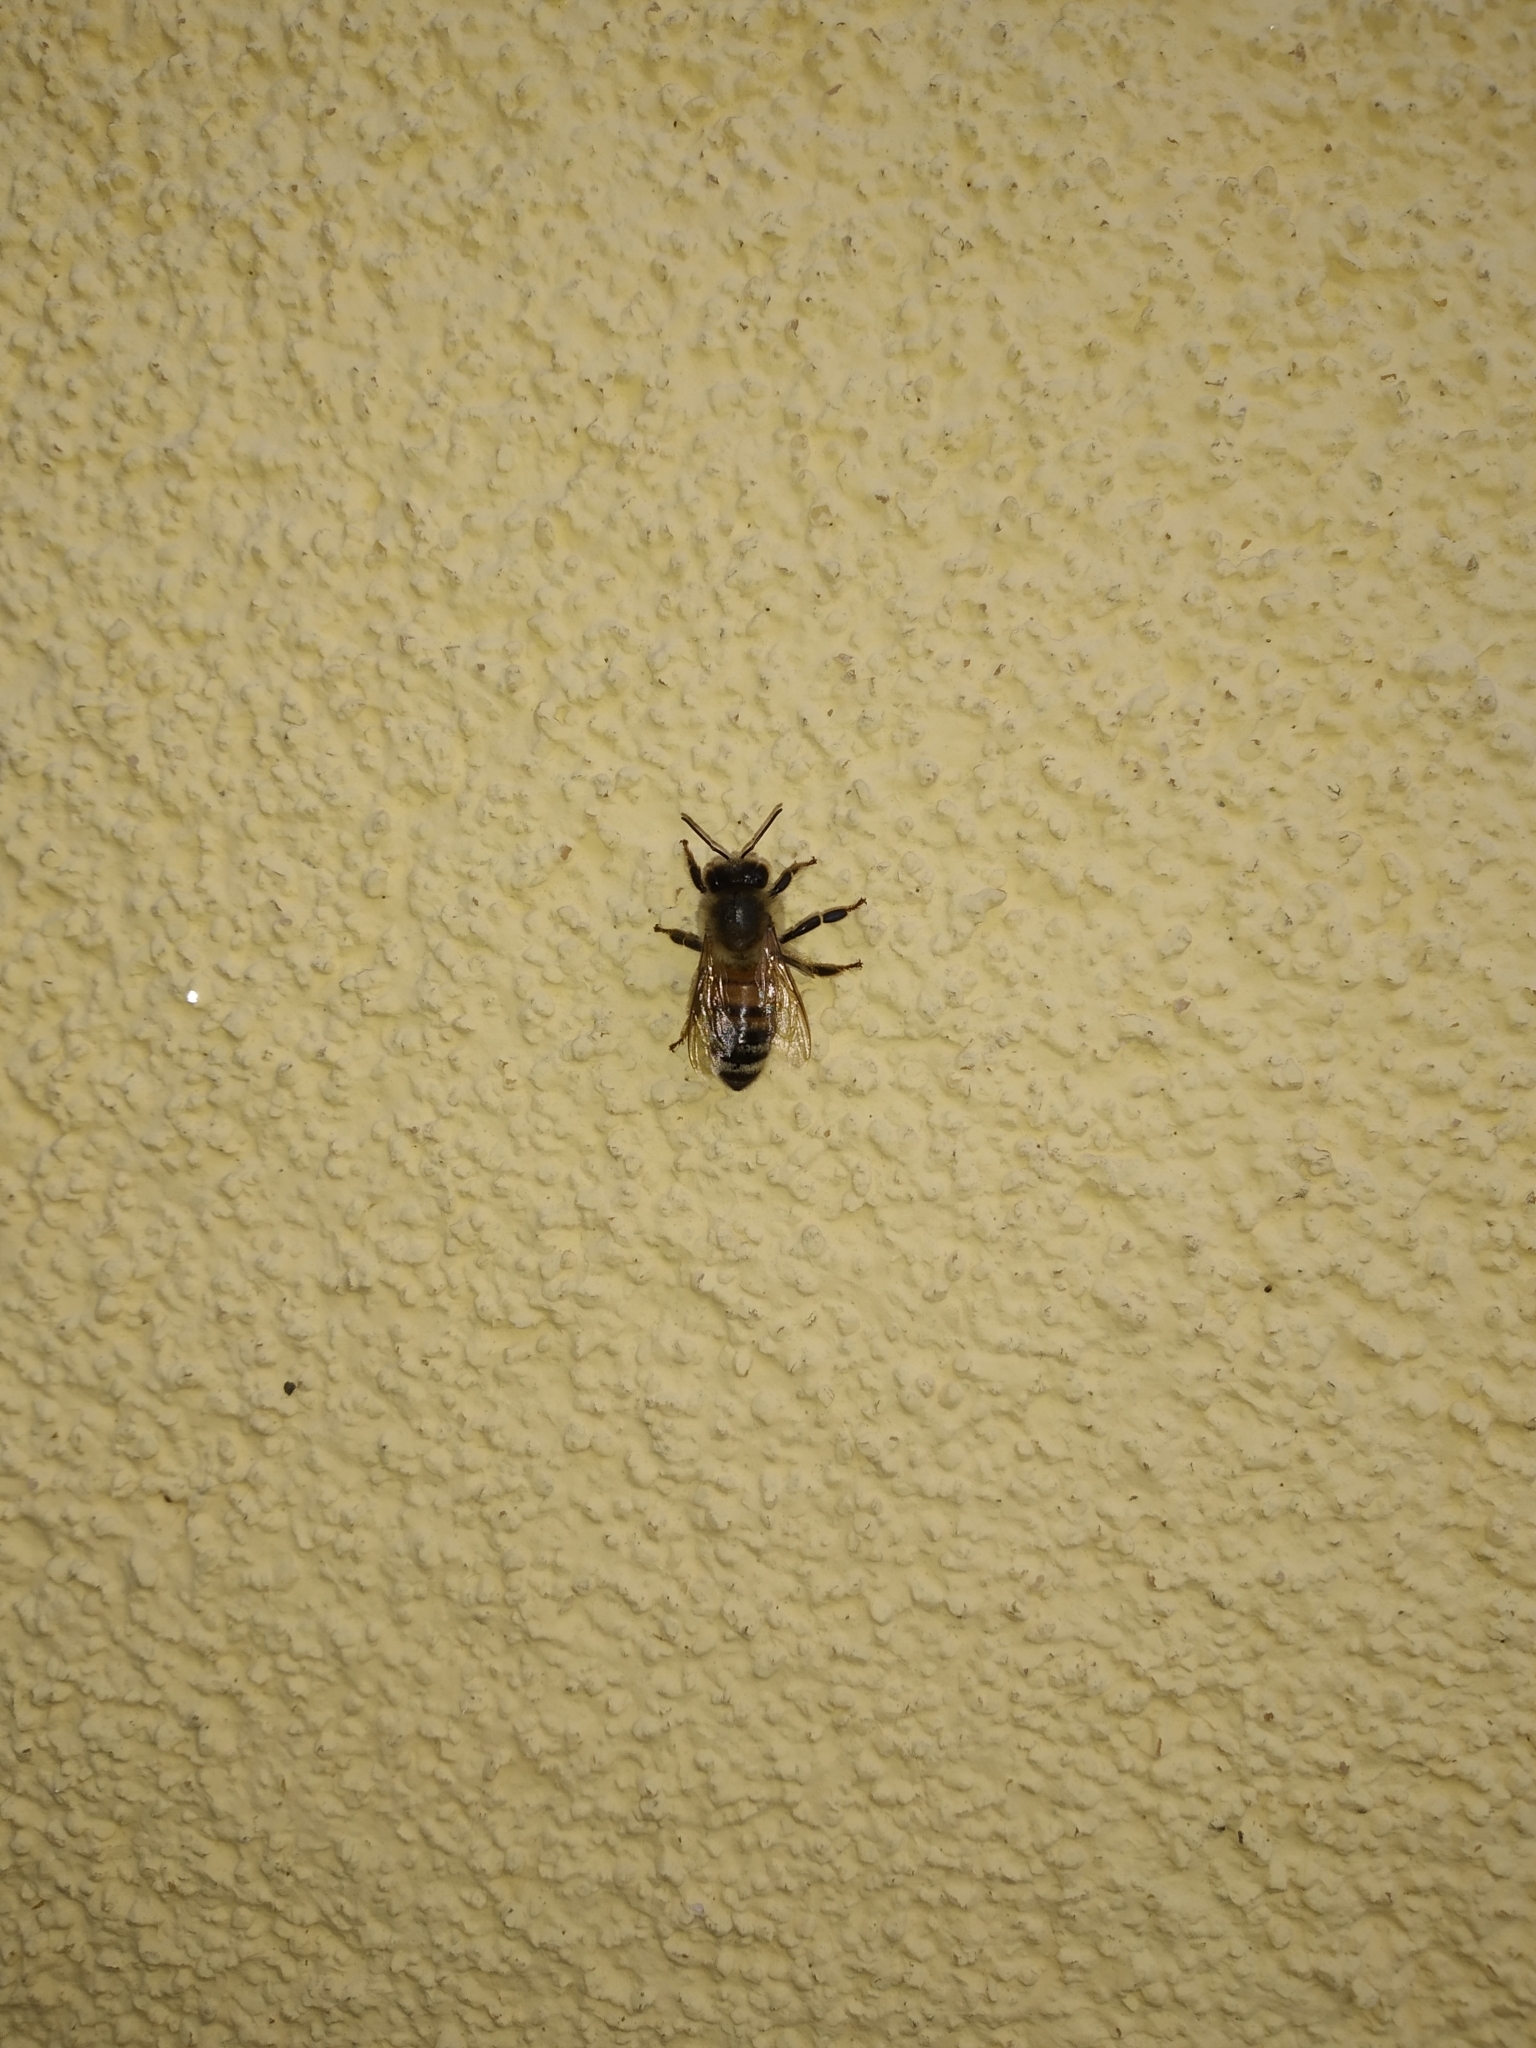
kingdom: Animalia
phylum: Arthropoda
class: Insecta
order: Hymenoptera
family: Apidae
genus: Apis
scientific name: Apis mellifera
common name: Honey bee
